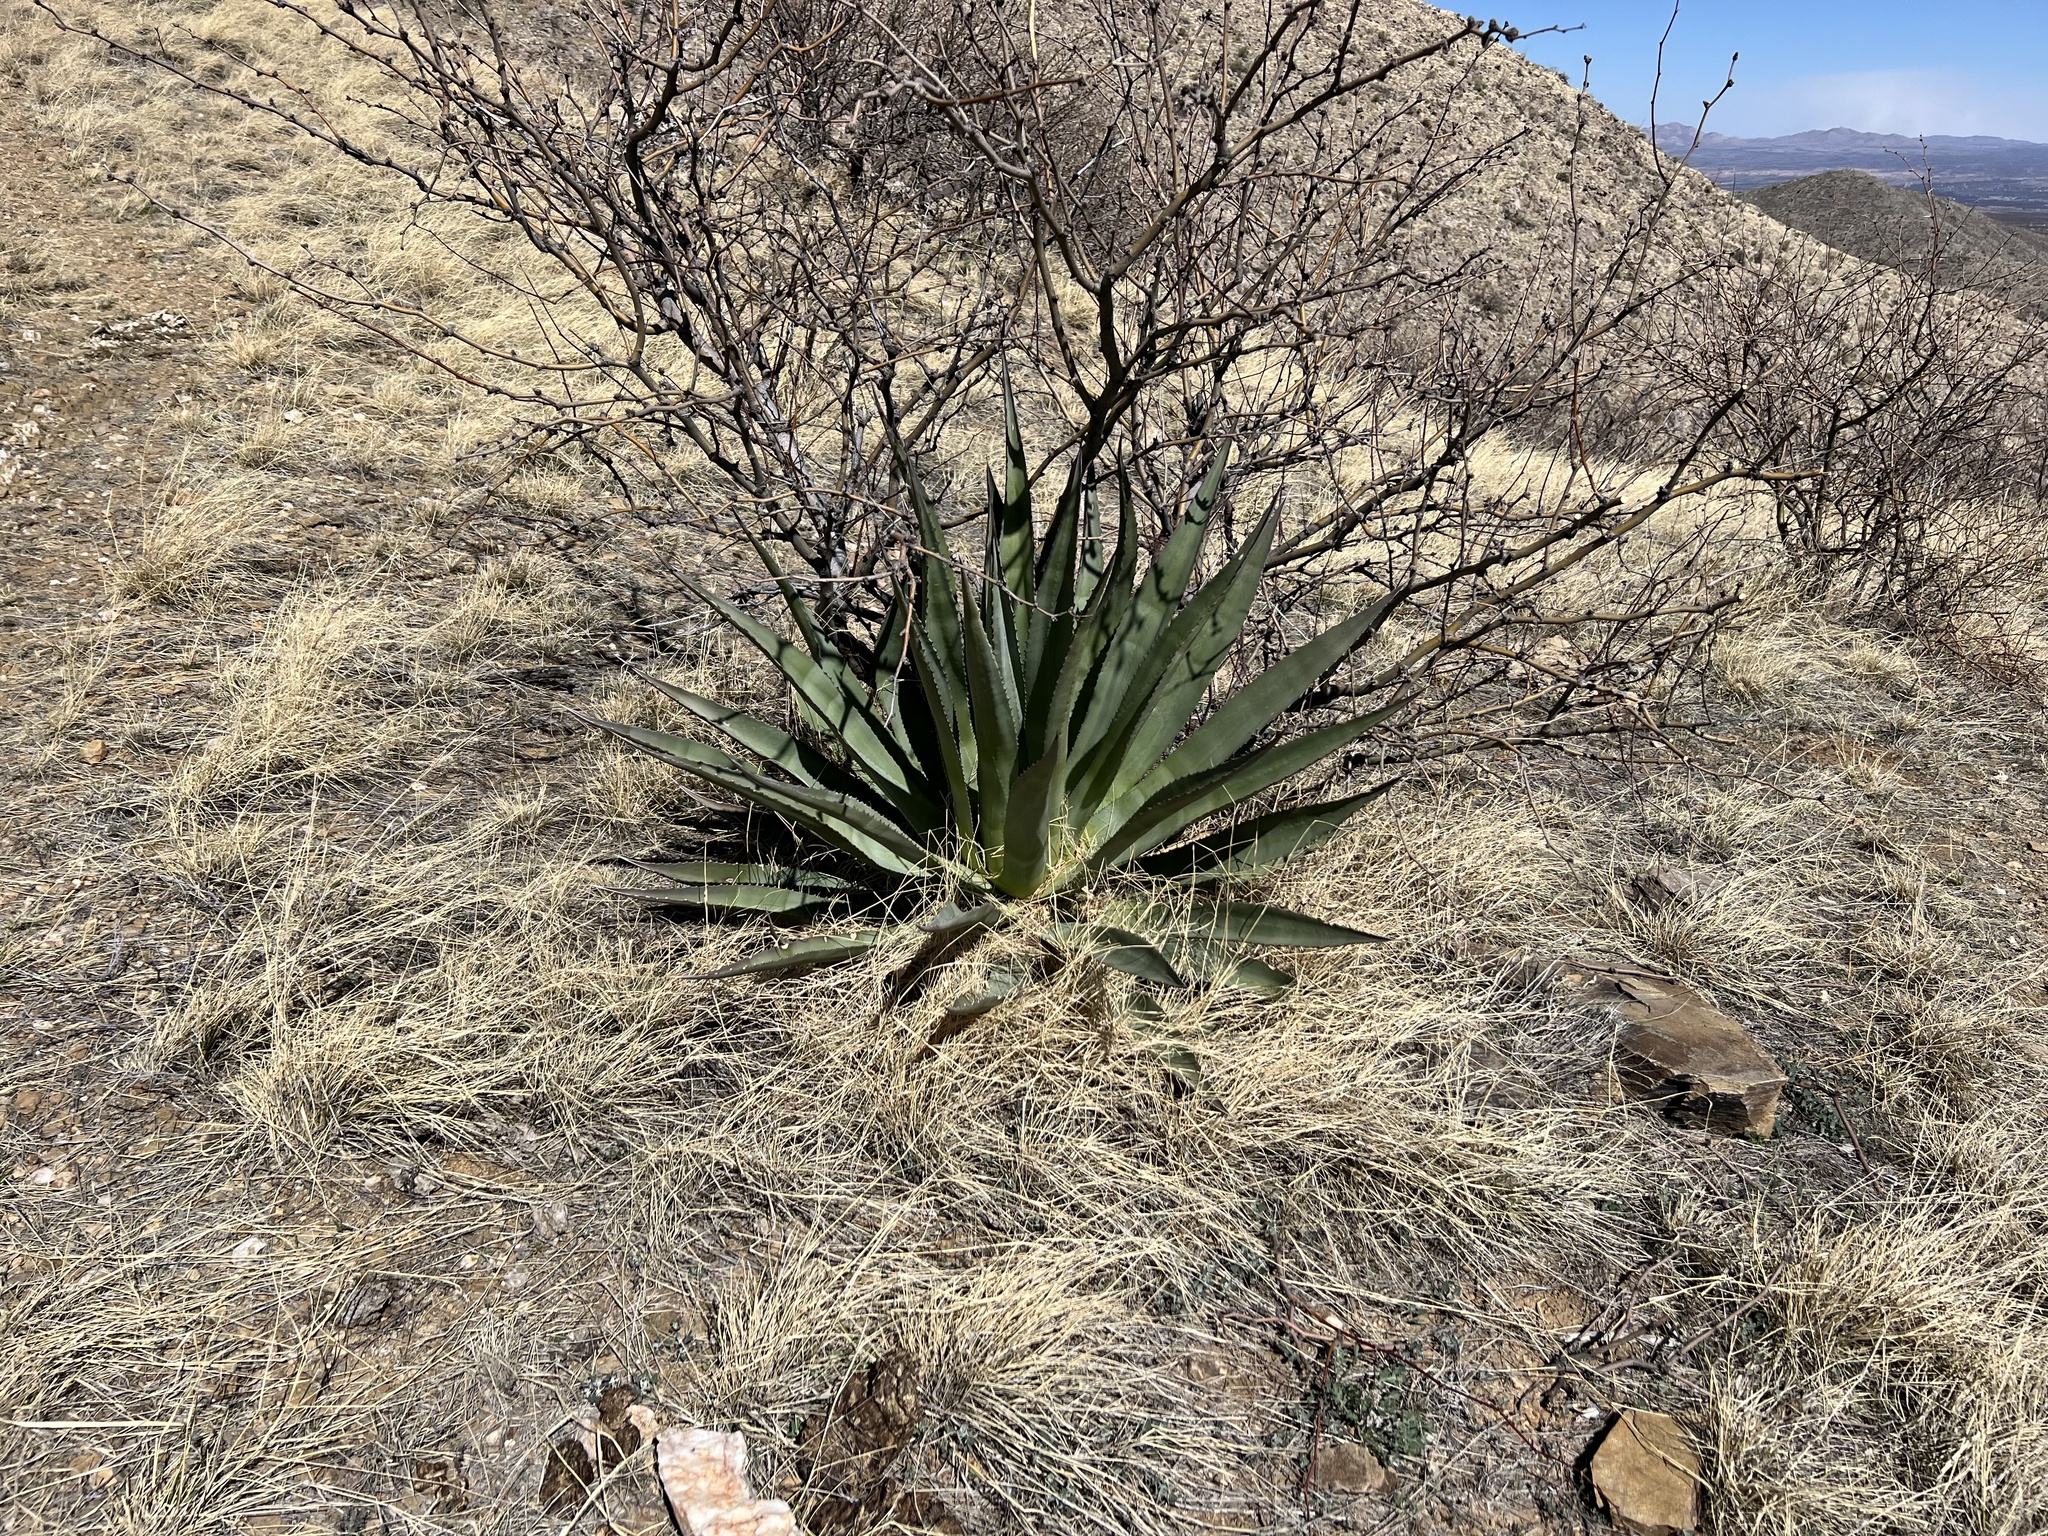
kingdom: Plantae
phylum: Tracheophyta
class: Liliopsida
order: Asparagales
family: Asparagaceae
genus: Agave
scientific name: Agave palmeri
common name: Palmer agave
